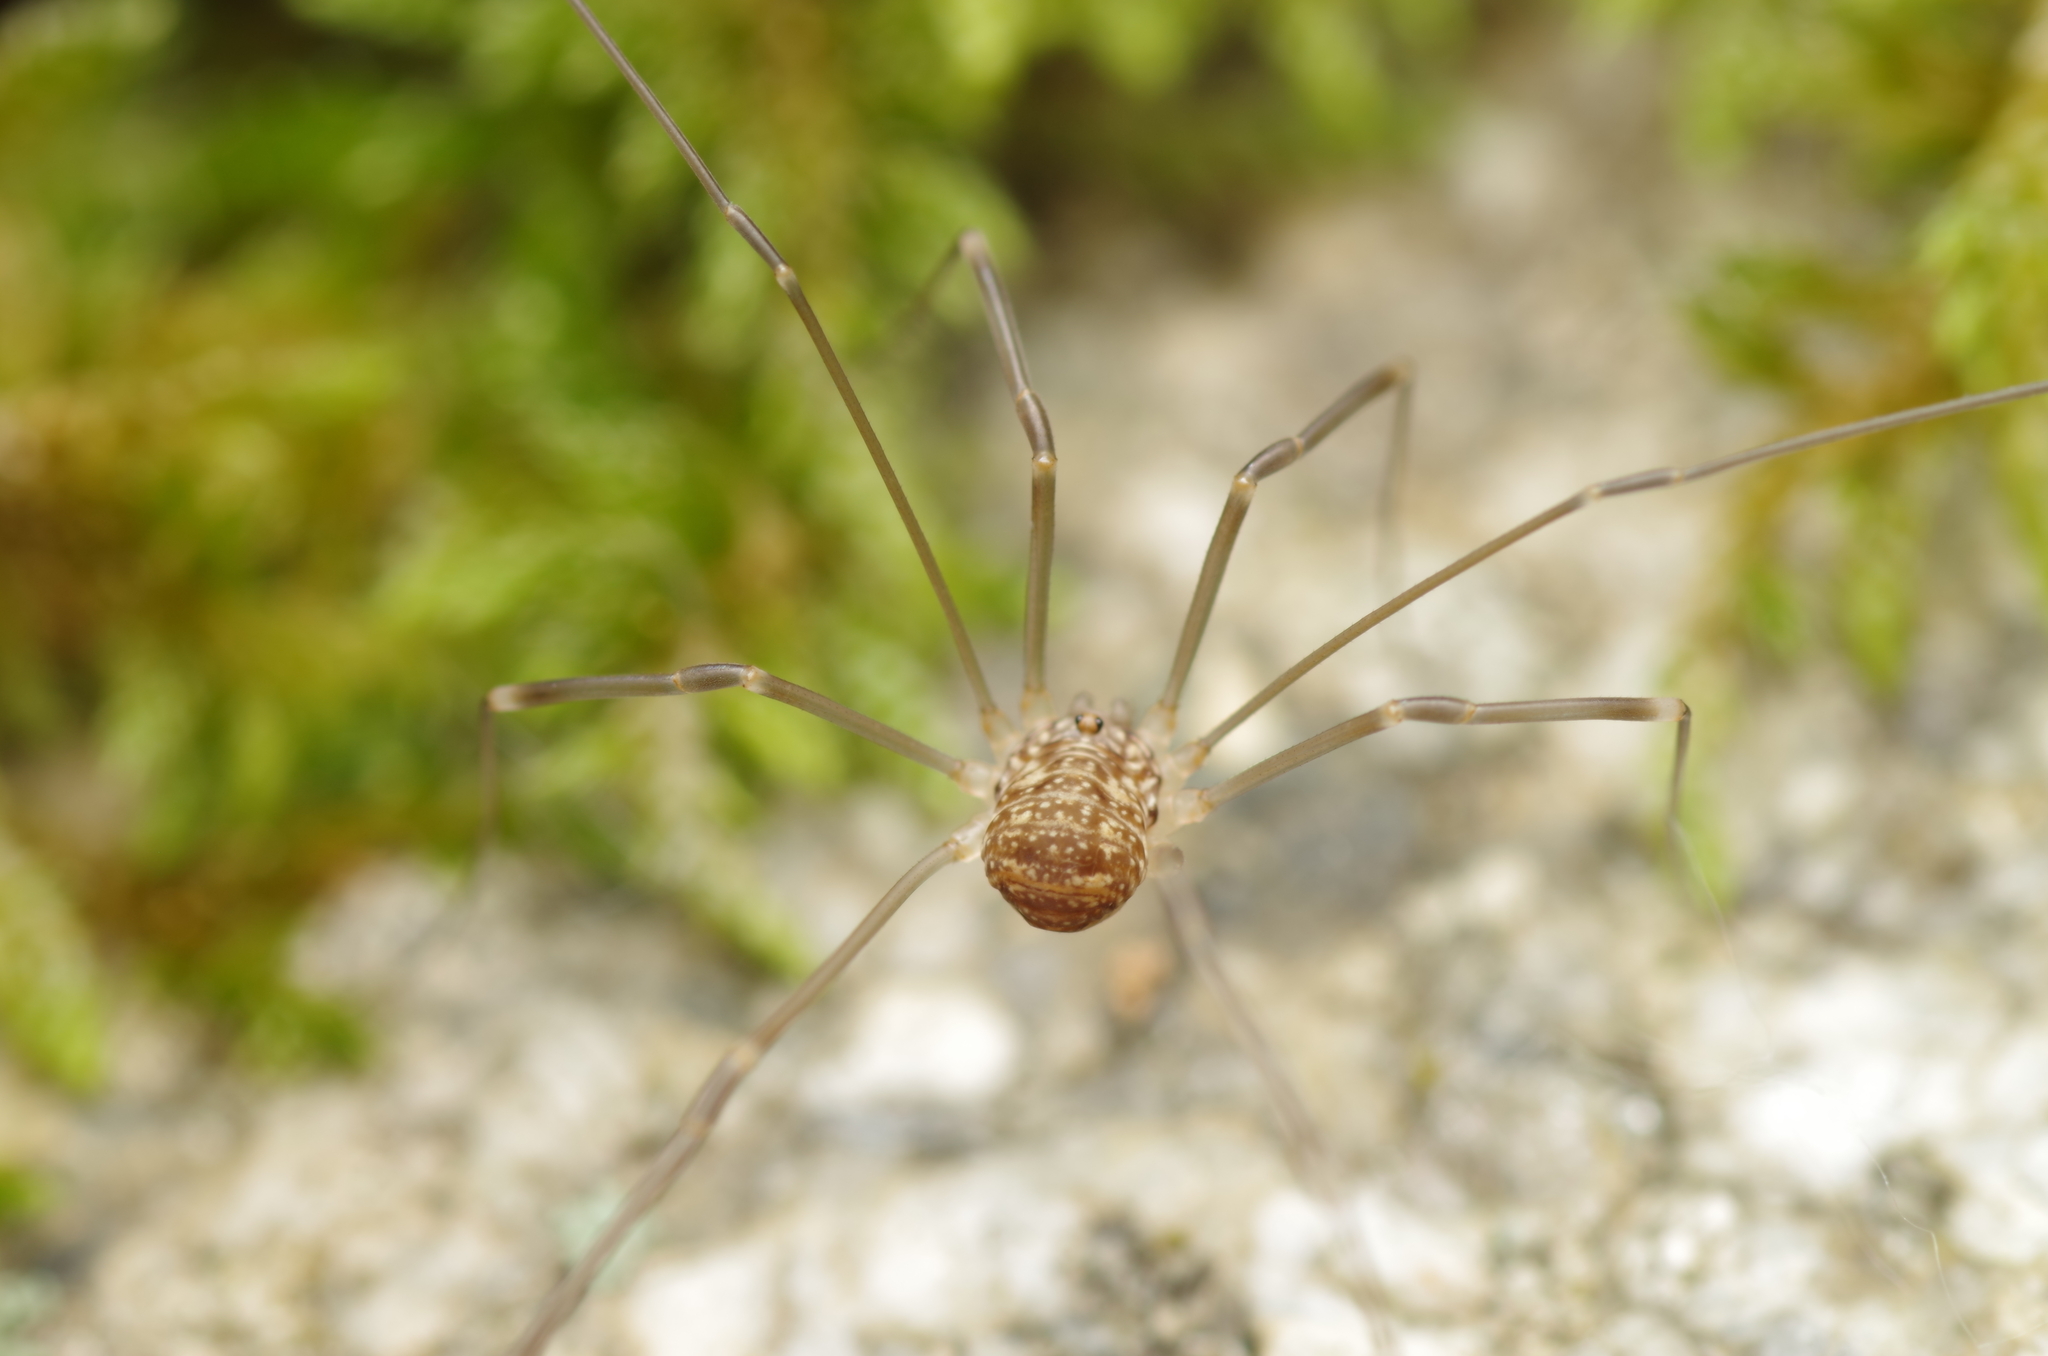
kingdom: Animalia
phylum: Arthropoda
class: Arachnida
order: Opiliones
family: Sclerosomatidae
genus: Nelima
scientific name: Nelima gothica
